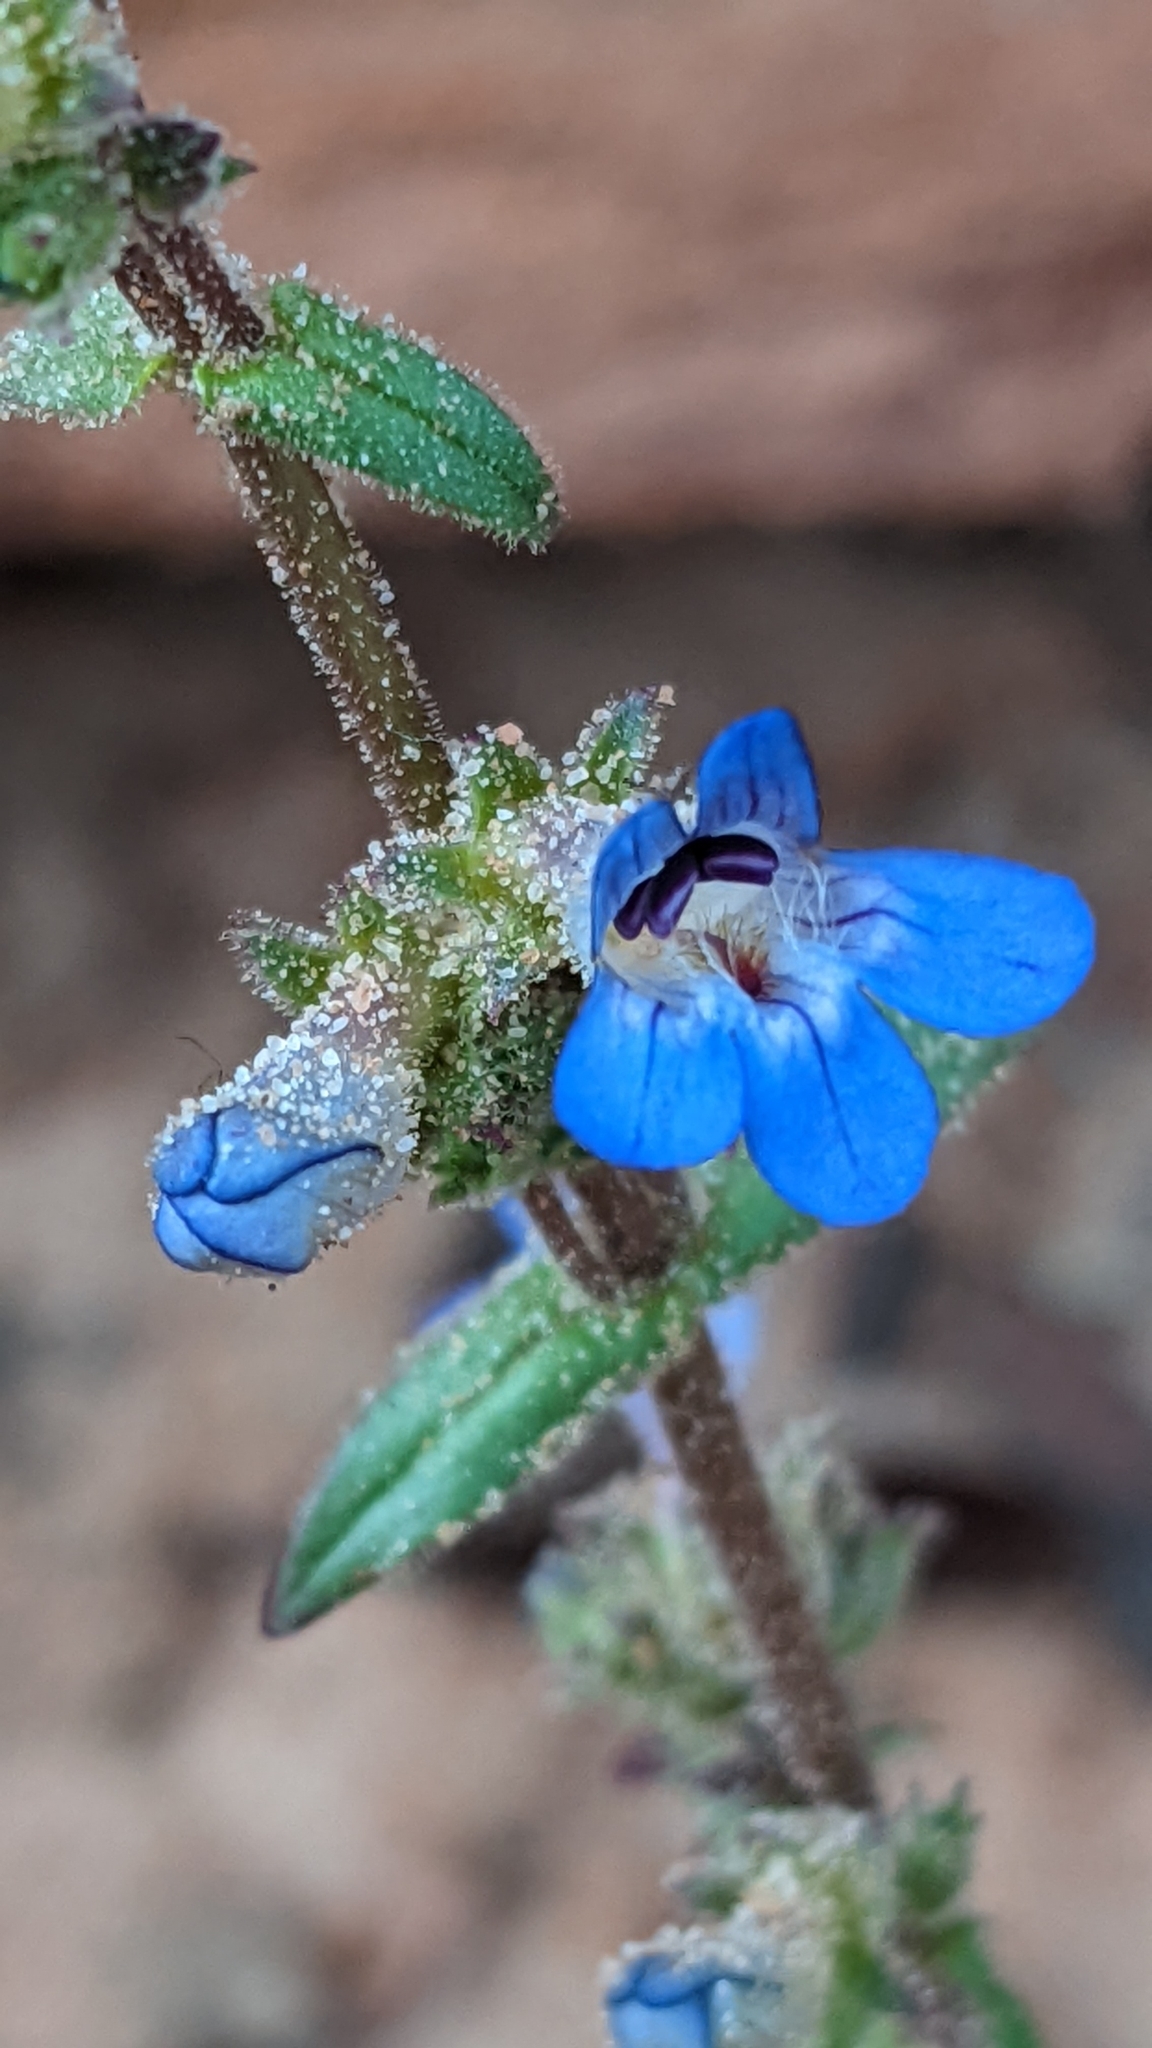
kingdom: Plantae
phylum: Tracheophyta
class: Magnoliopsida
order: Lamiales
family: Plantaginaceae
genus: Penstemon
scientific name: Penstemon humilis
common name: Low penstemon
